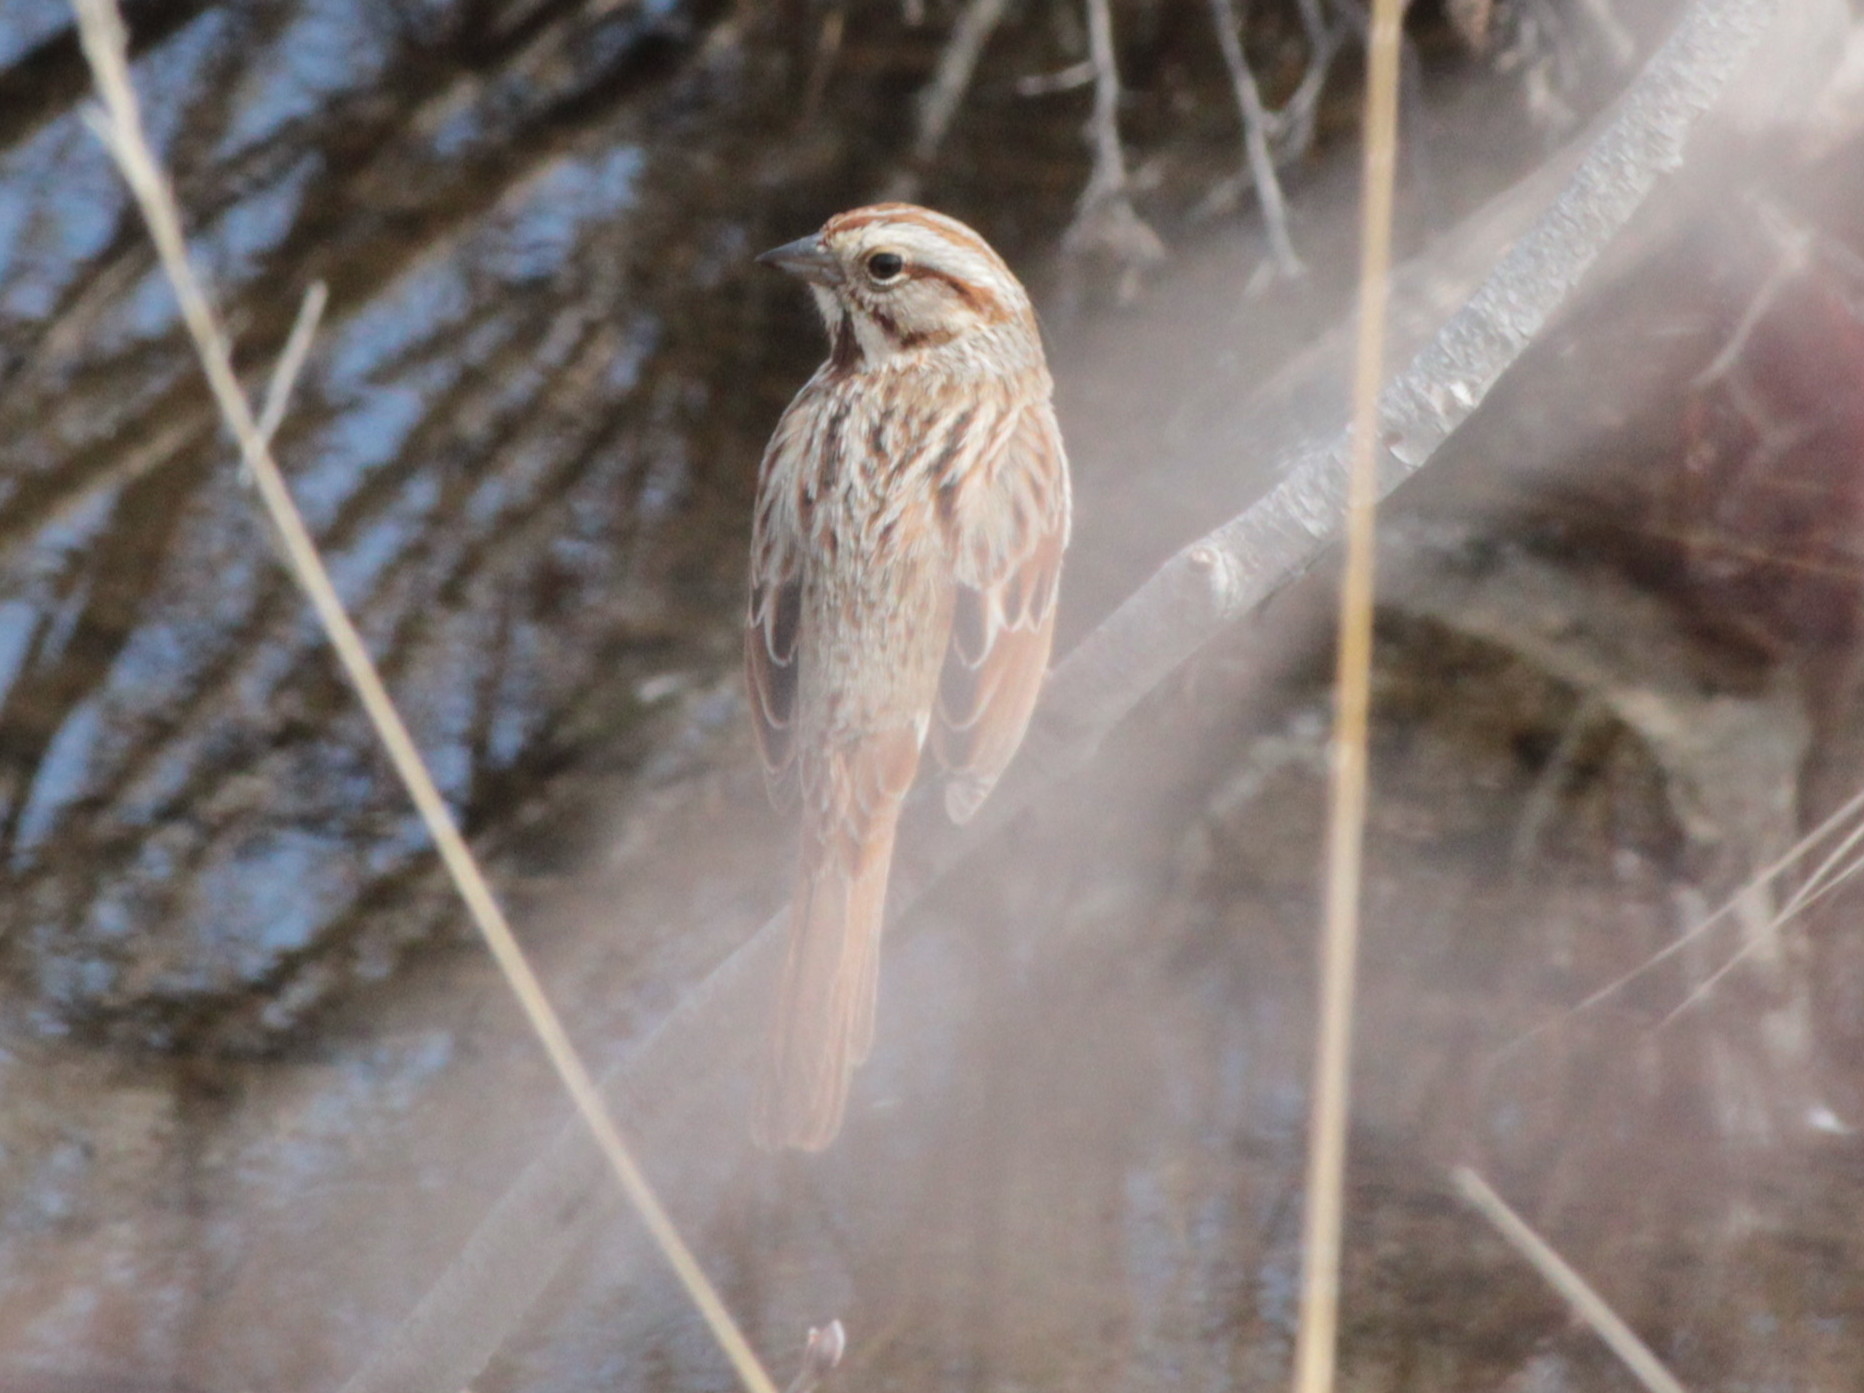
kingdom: Animalia
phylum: Chordata
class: Aves
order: Passeriformes
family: Passerellidae
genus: Melospiza
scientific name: Melospiza melodia
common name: Song sparrow
